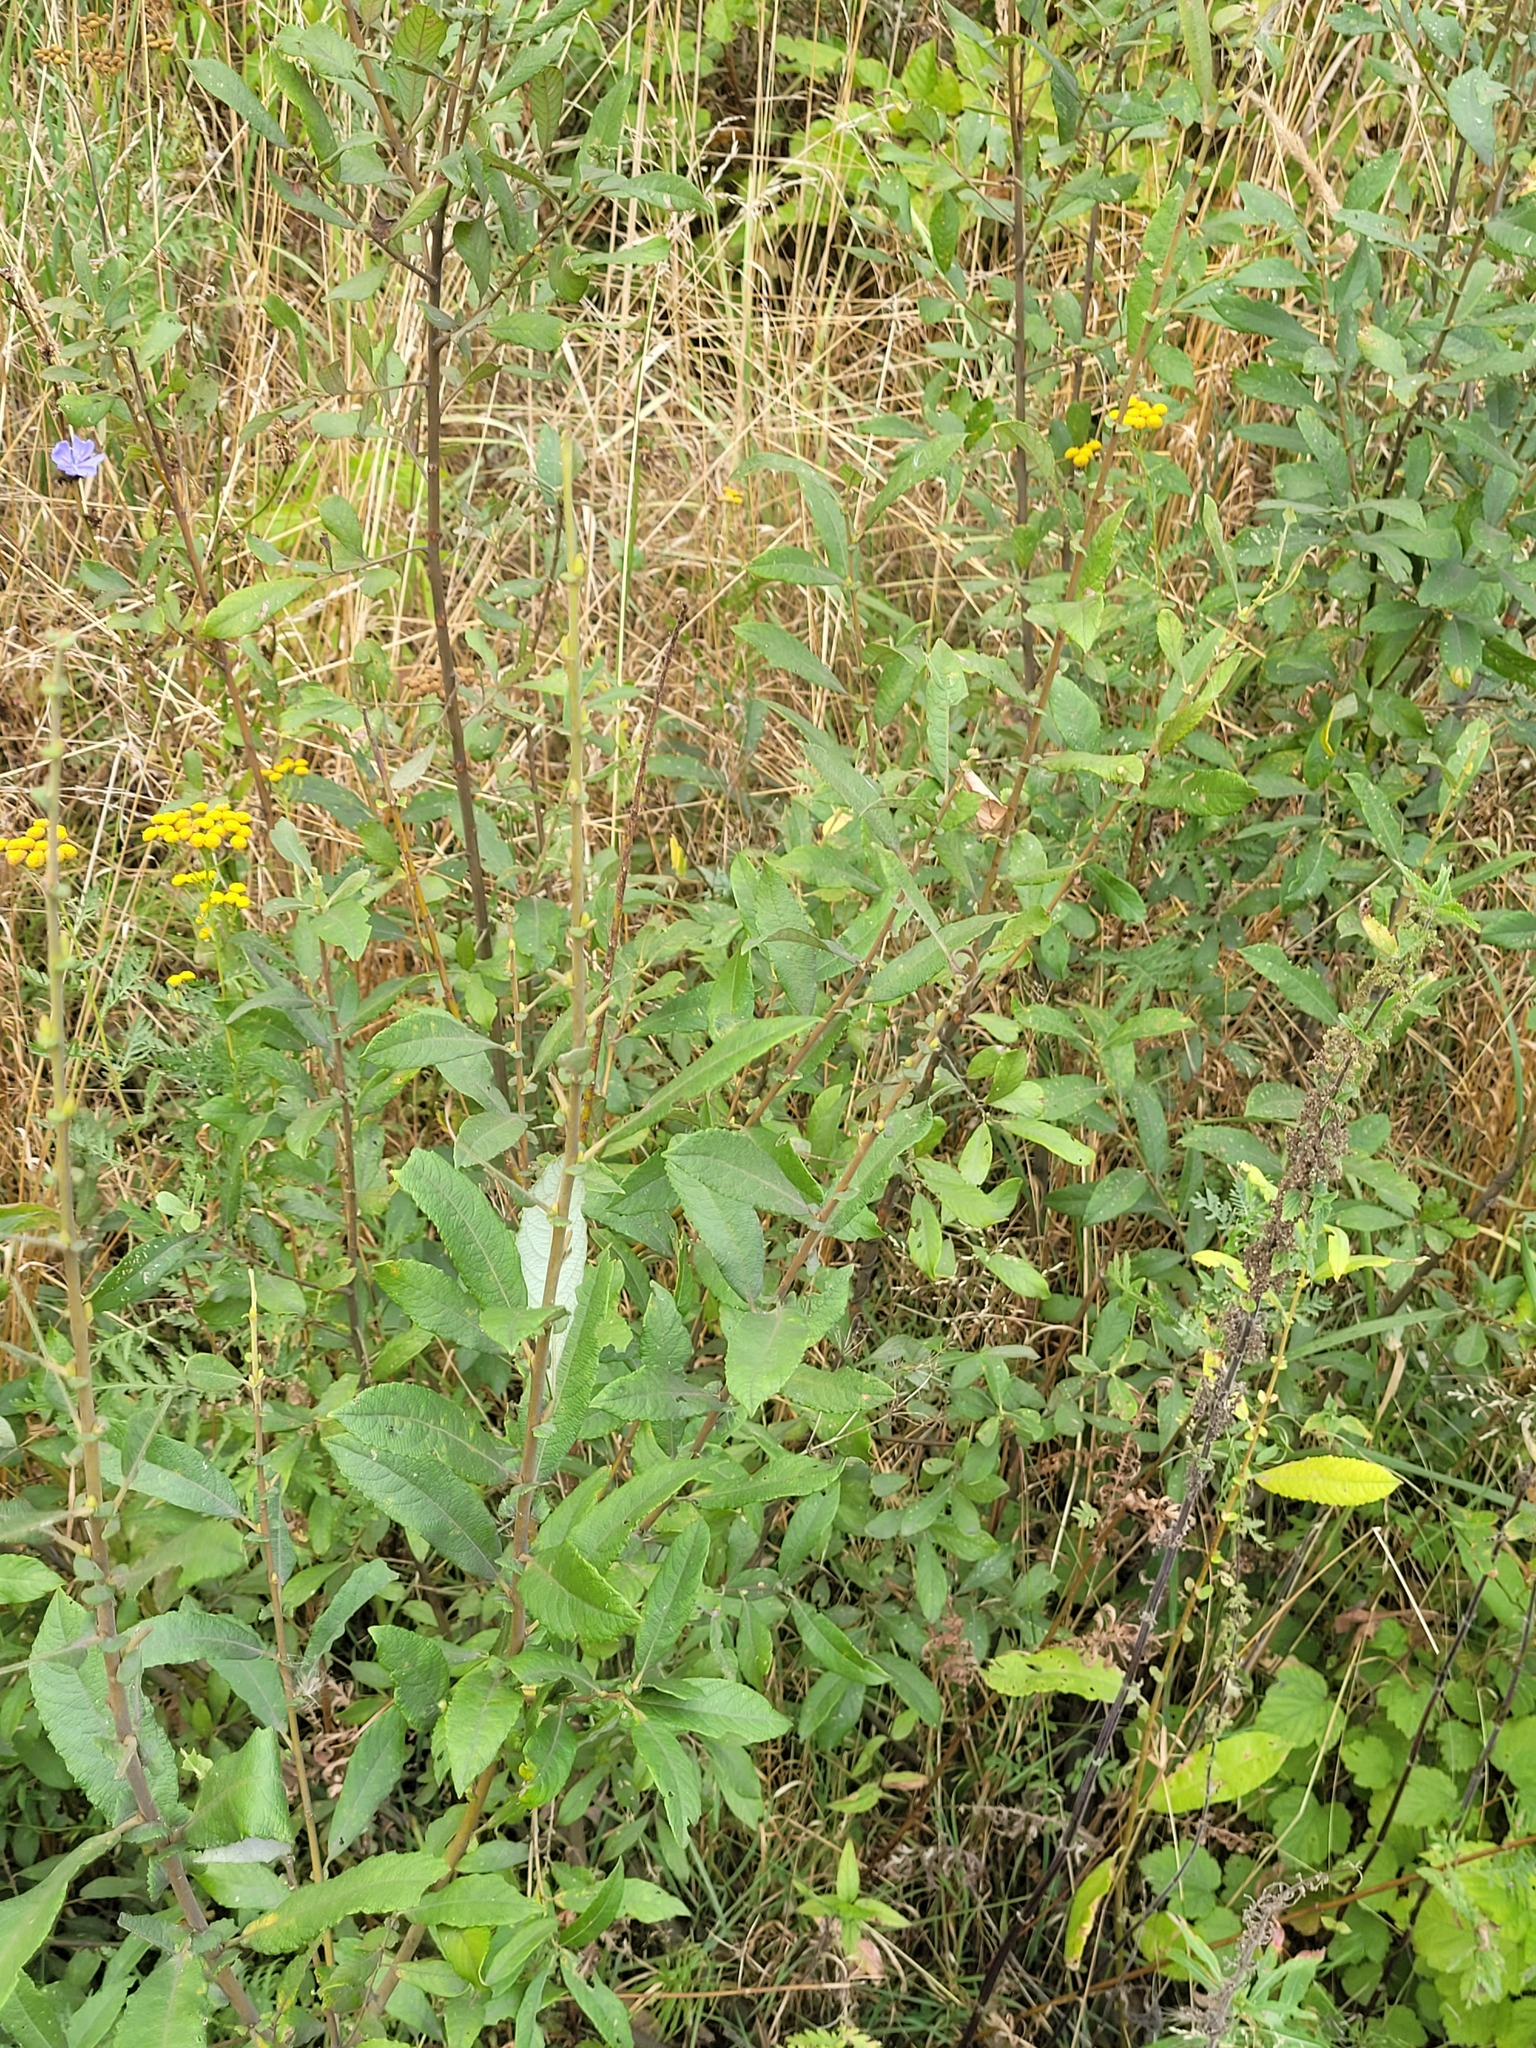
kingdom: Plantae
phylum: Tracheophyta
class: Magnoliopsida
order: Malpighiales
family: Salicaceae
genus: Salix
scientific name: Salix cinerea
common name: Common sallow
